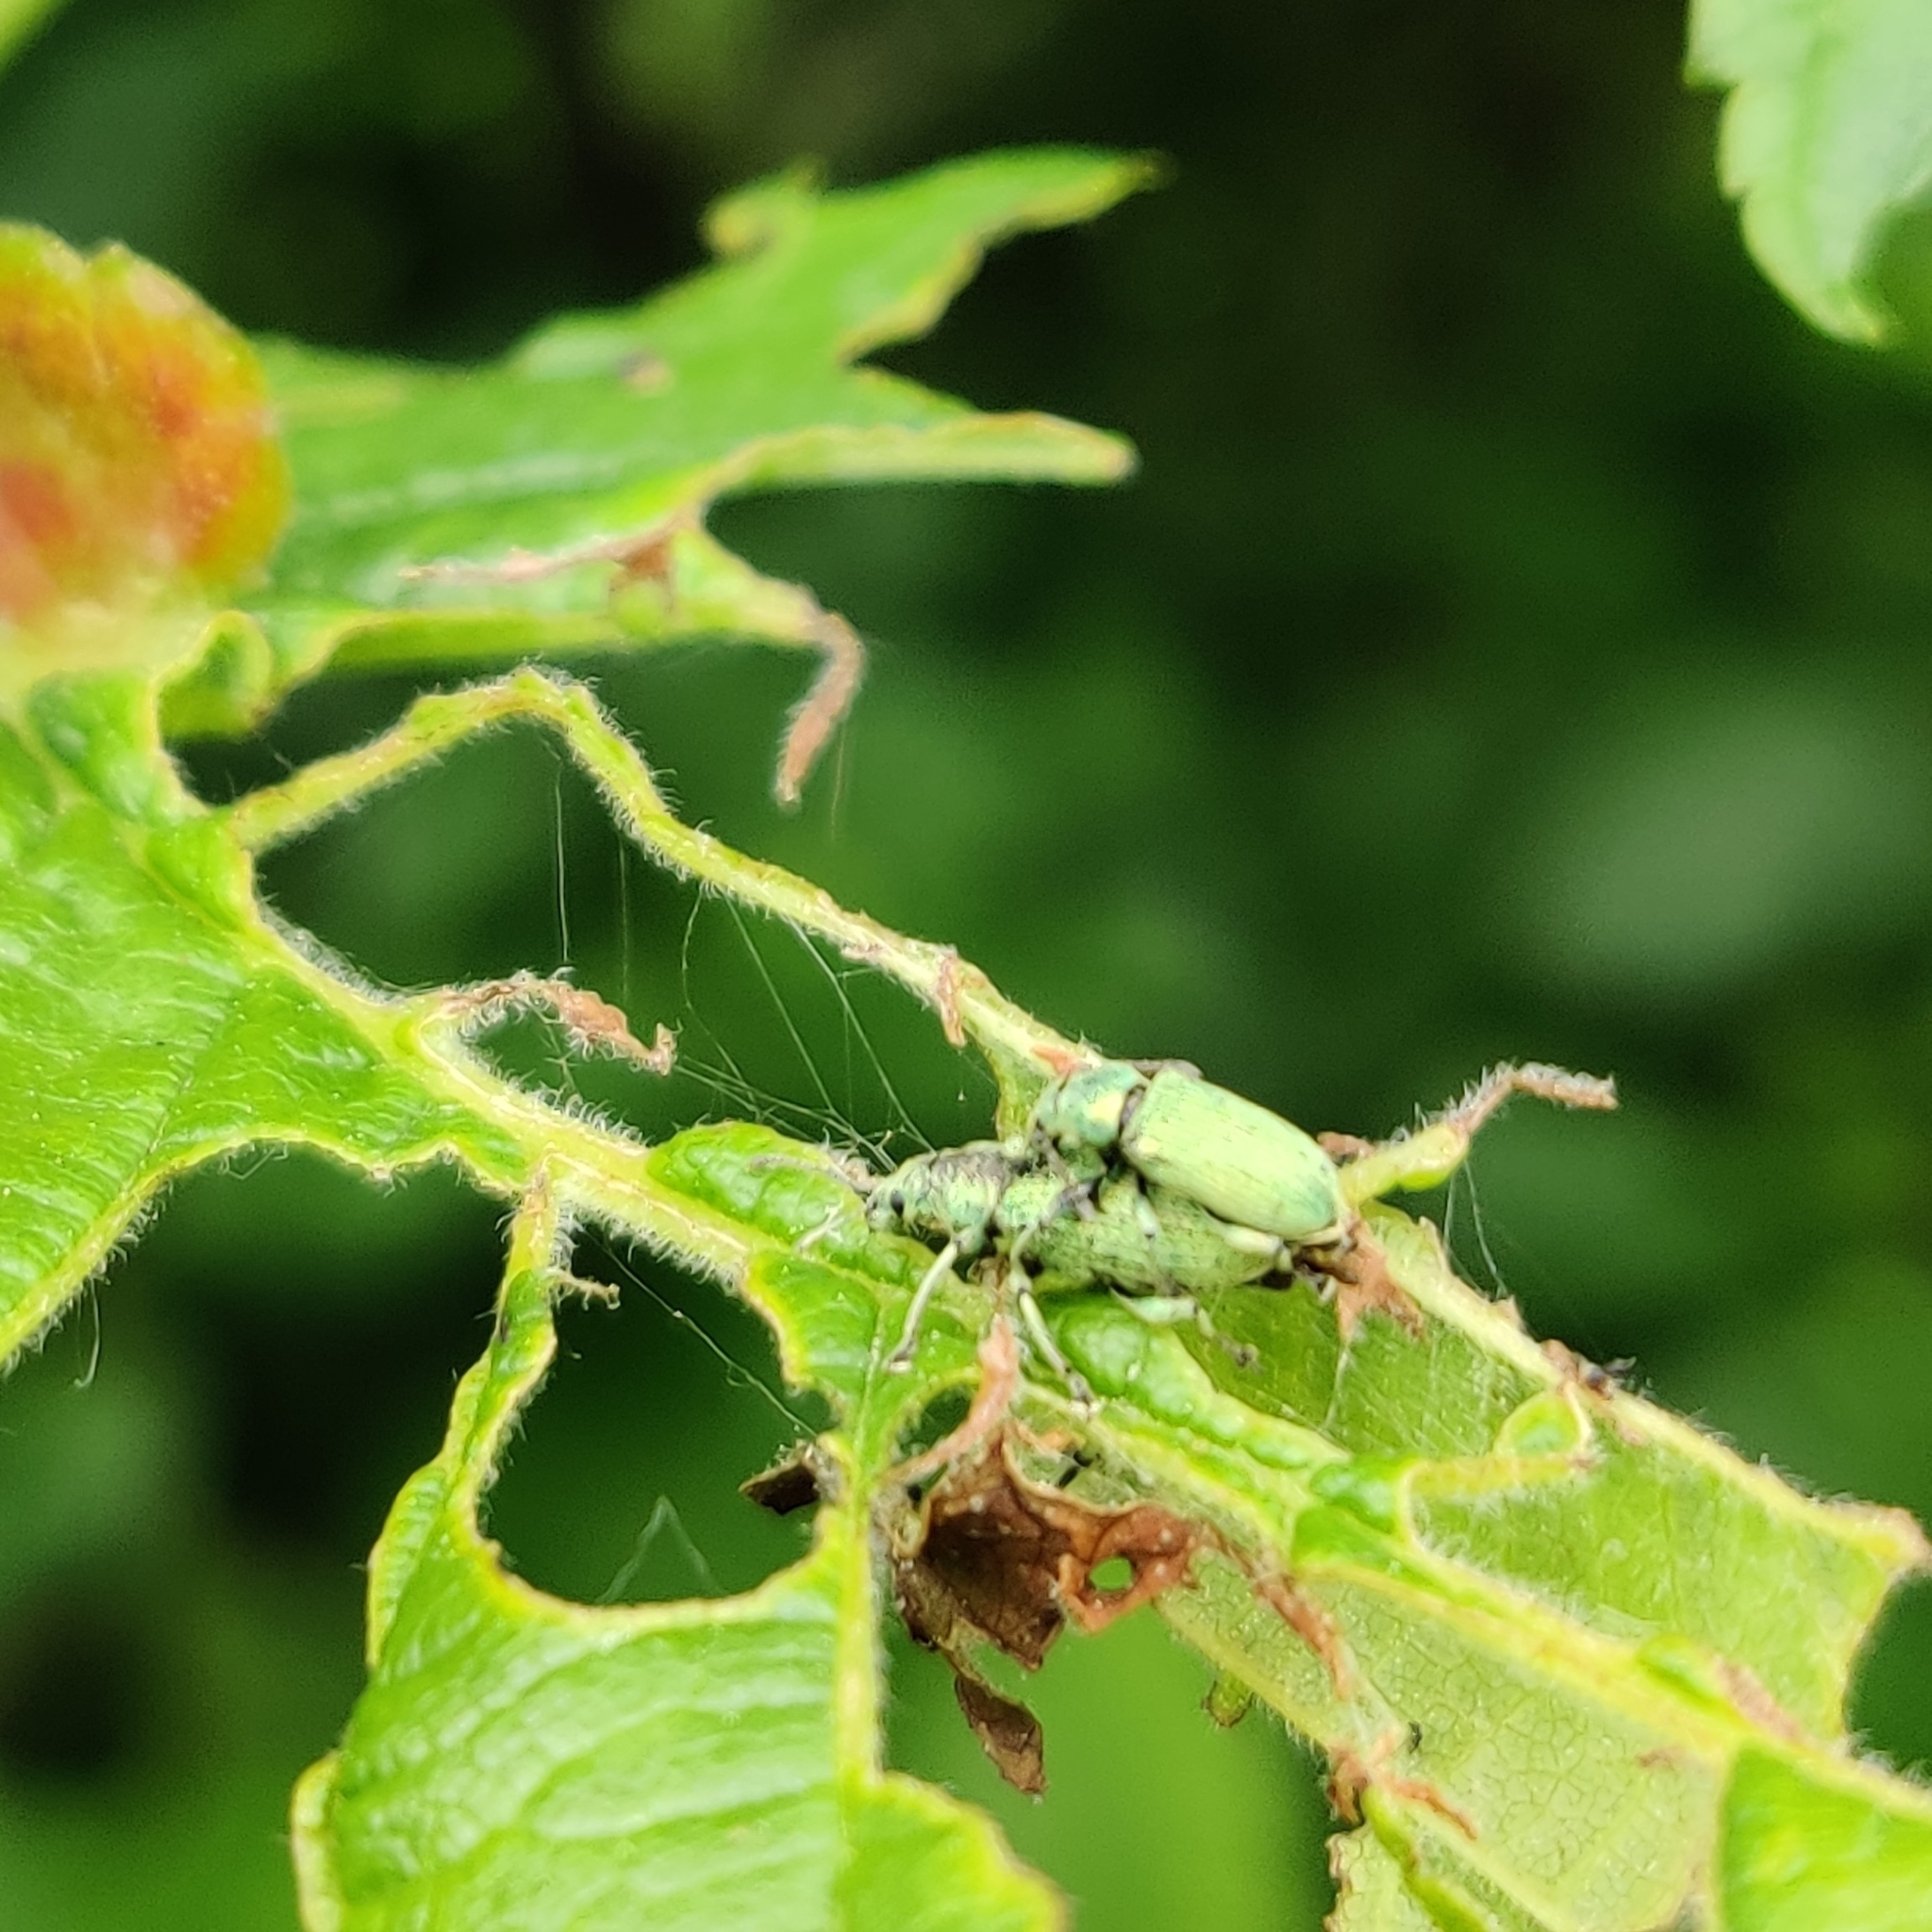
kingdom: Animalia
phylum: Arthropoda
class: Insecta
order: Coleoptera
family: Curculionidae
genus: Phyllobius
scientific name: Phyllobius maculicornis
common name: Green leaf weevil
